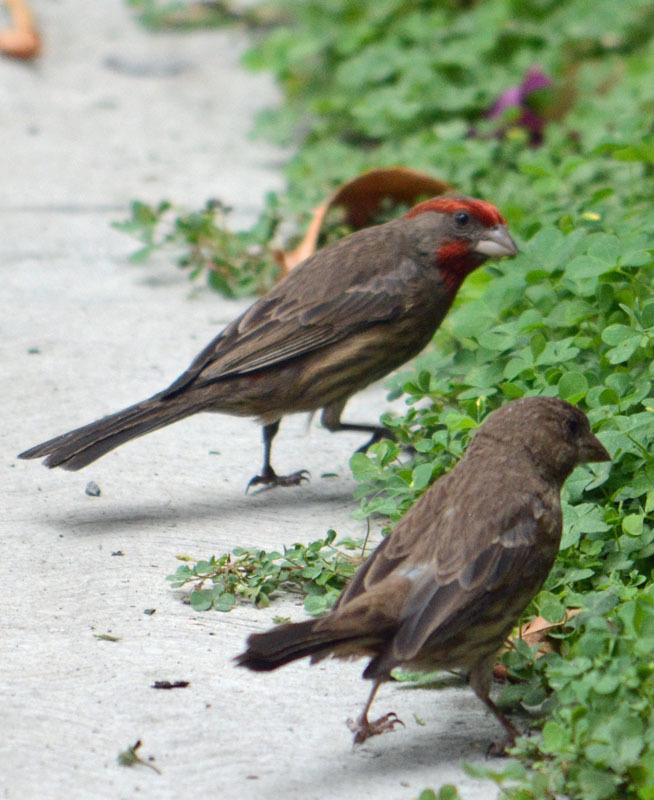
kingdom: Animalia
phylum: Chordata
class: Aves
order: Passeriformes
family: Fringillidae
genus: Haemorhous
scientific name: Haemorhous mexicanus
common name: House finch
